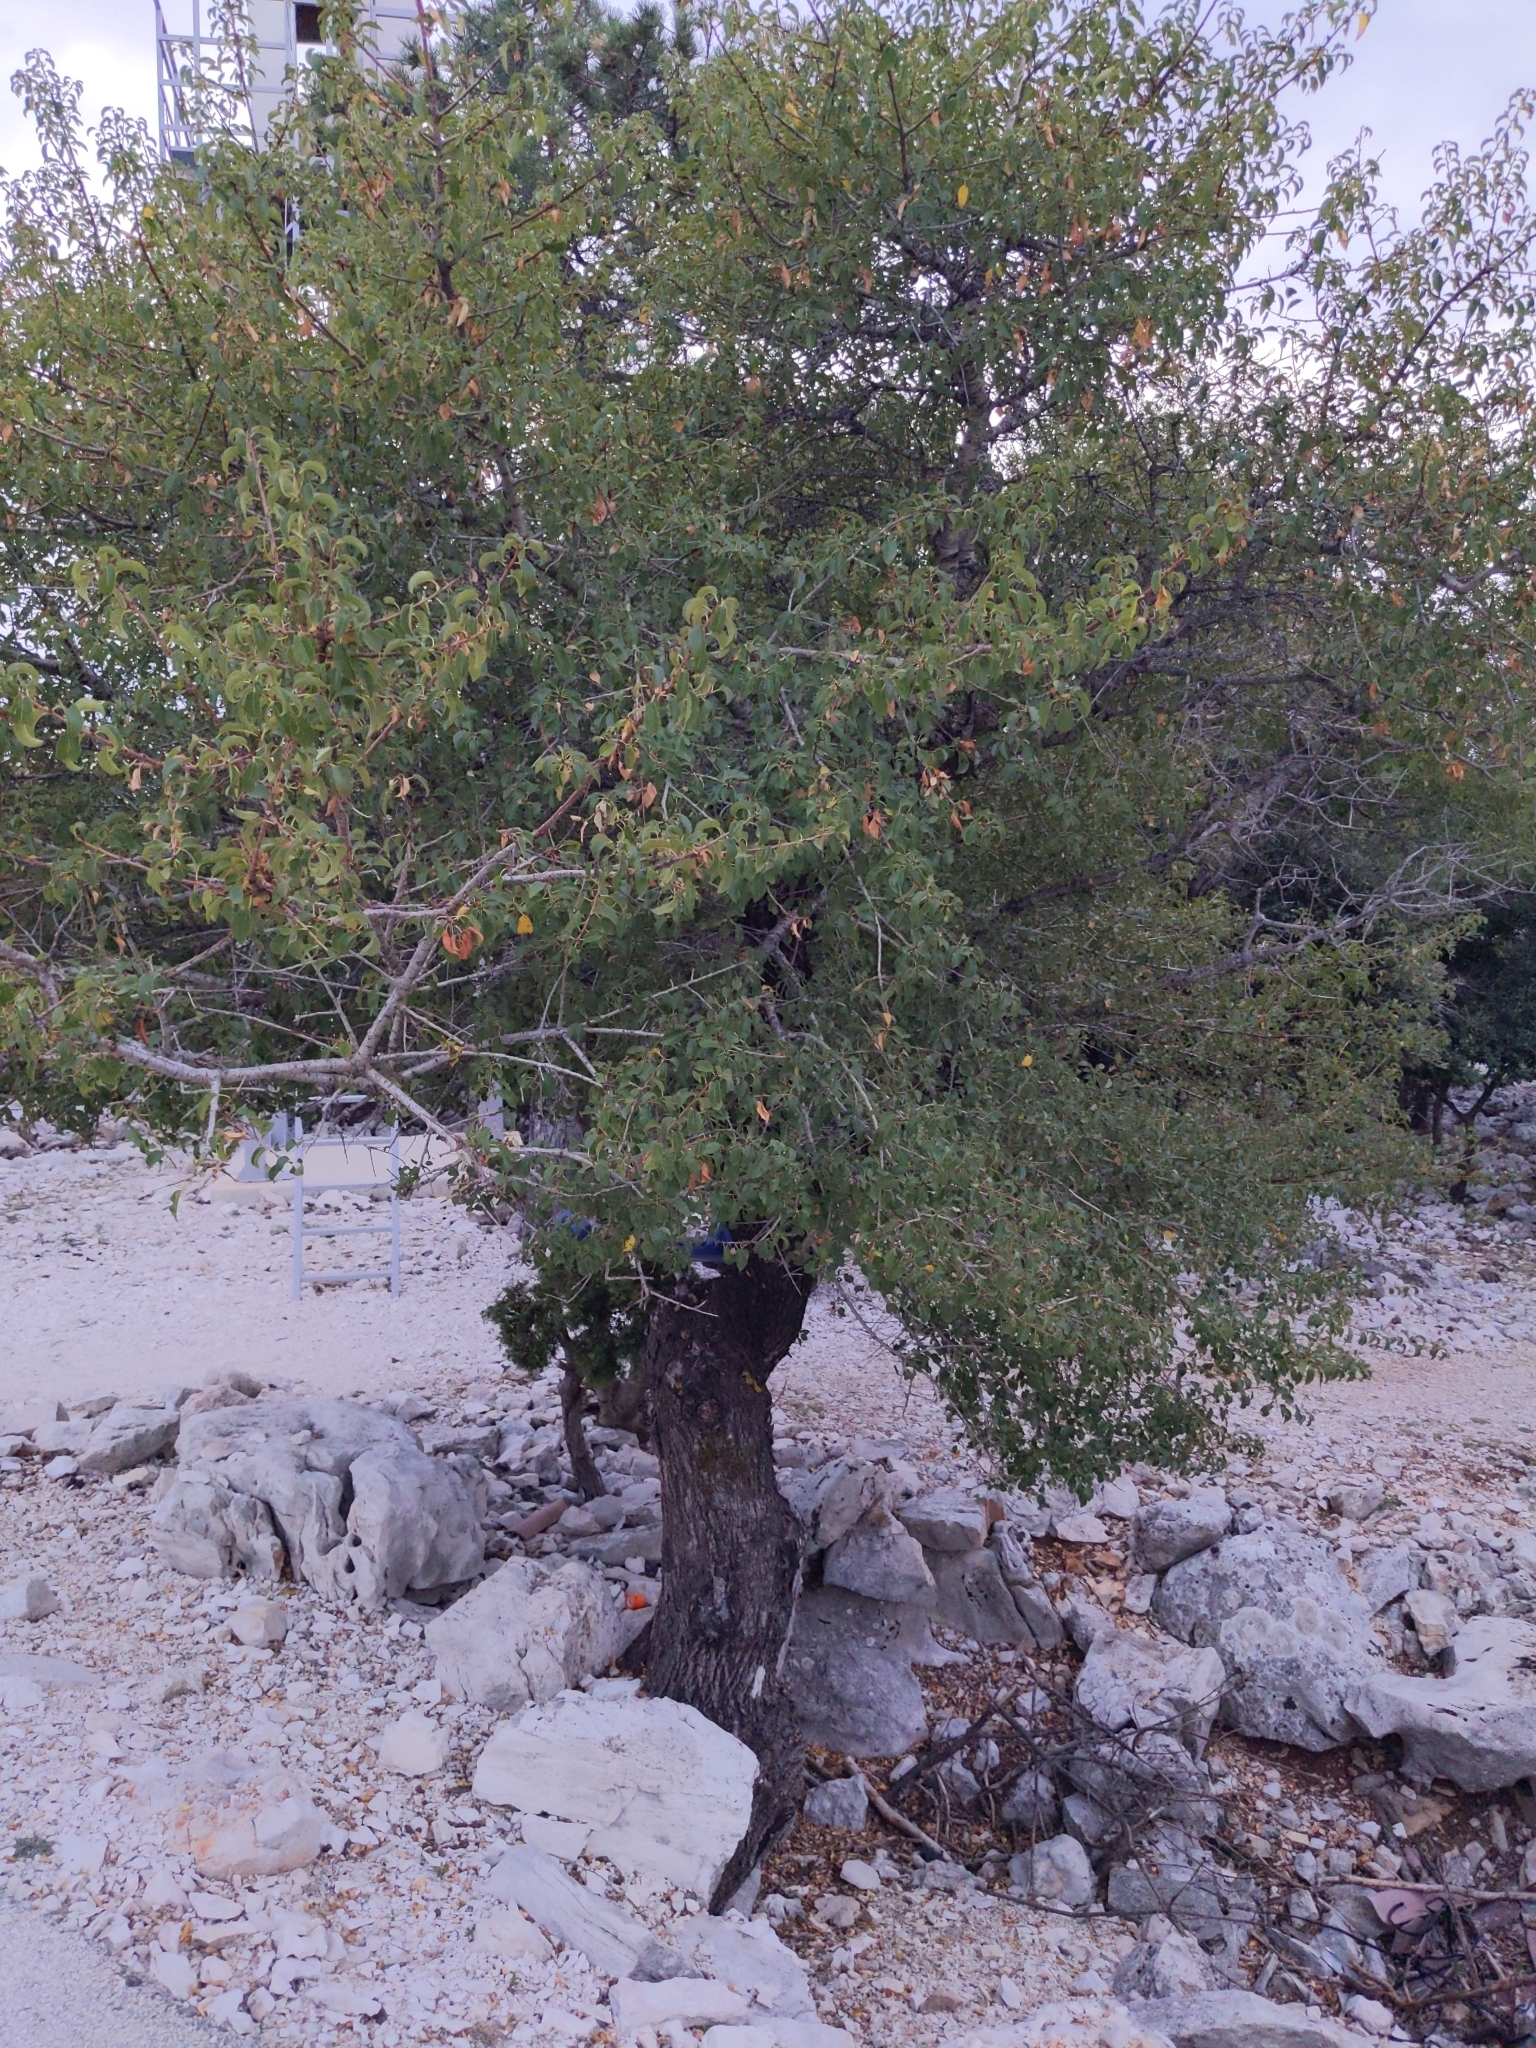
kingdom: Plantae
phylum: Tracheophyta
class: Magnoliopsida
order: Rosales
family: Rosaceae
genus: Prunus
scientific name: Prunus mahaleb
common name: Mahaleb cherry
